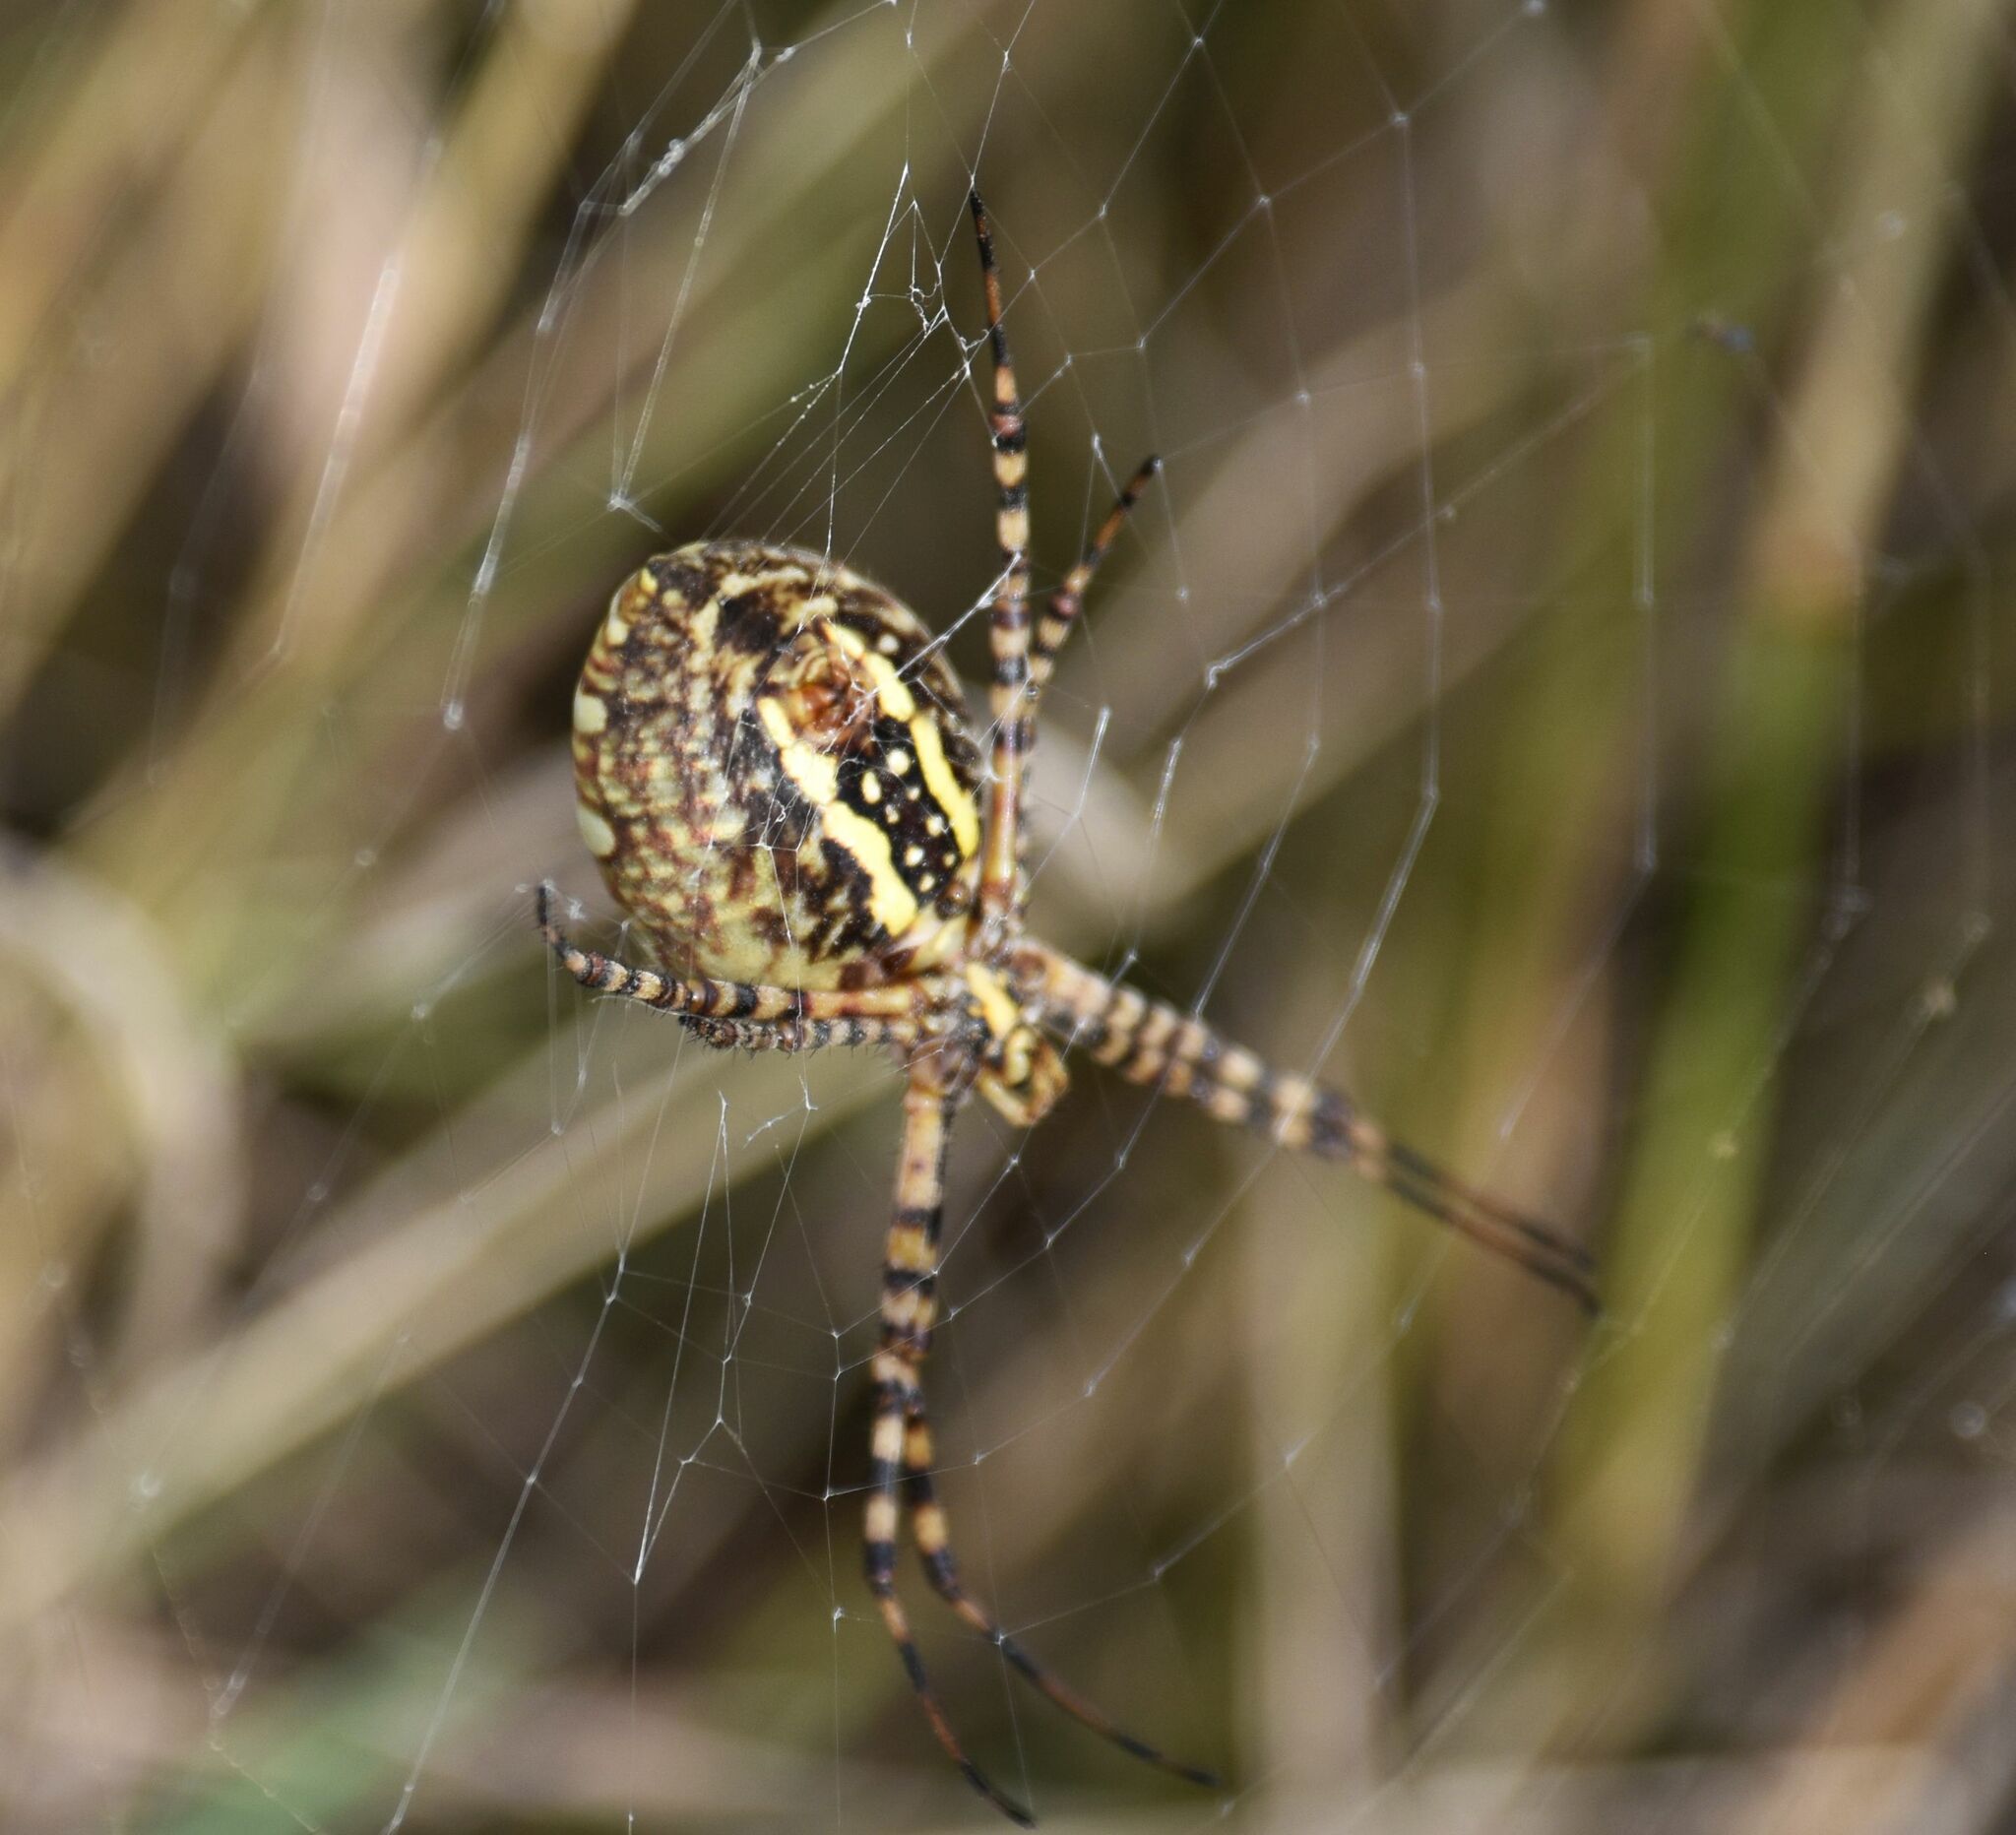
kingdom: Animalia
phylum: Arthropoda
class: Arachnida
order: Araneae
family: Araneidae
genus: Argiope
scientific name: Argiope trifasciata
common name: Banded garden spider
